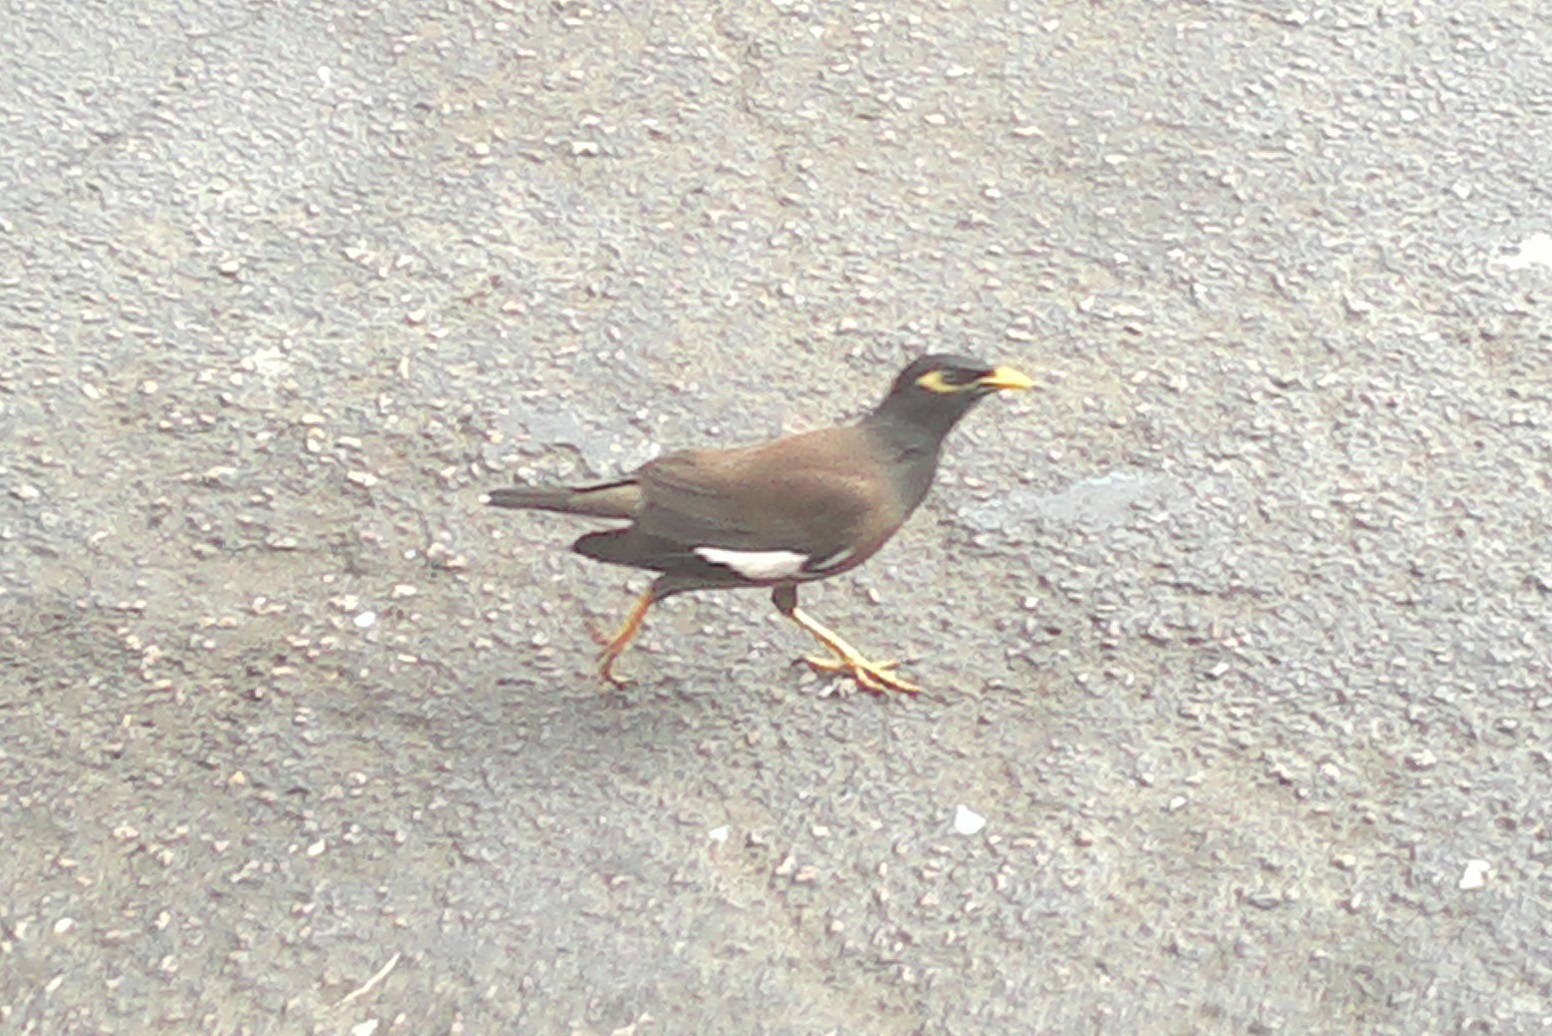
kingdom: Animalia
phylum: Chordata
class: Aves
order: Passeriformes
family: Sturnidae
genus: Acridotheres
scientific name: Acridotheres tristis
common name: Common myna
